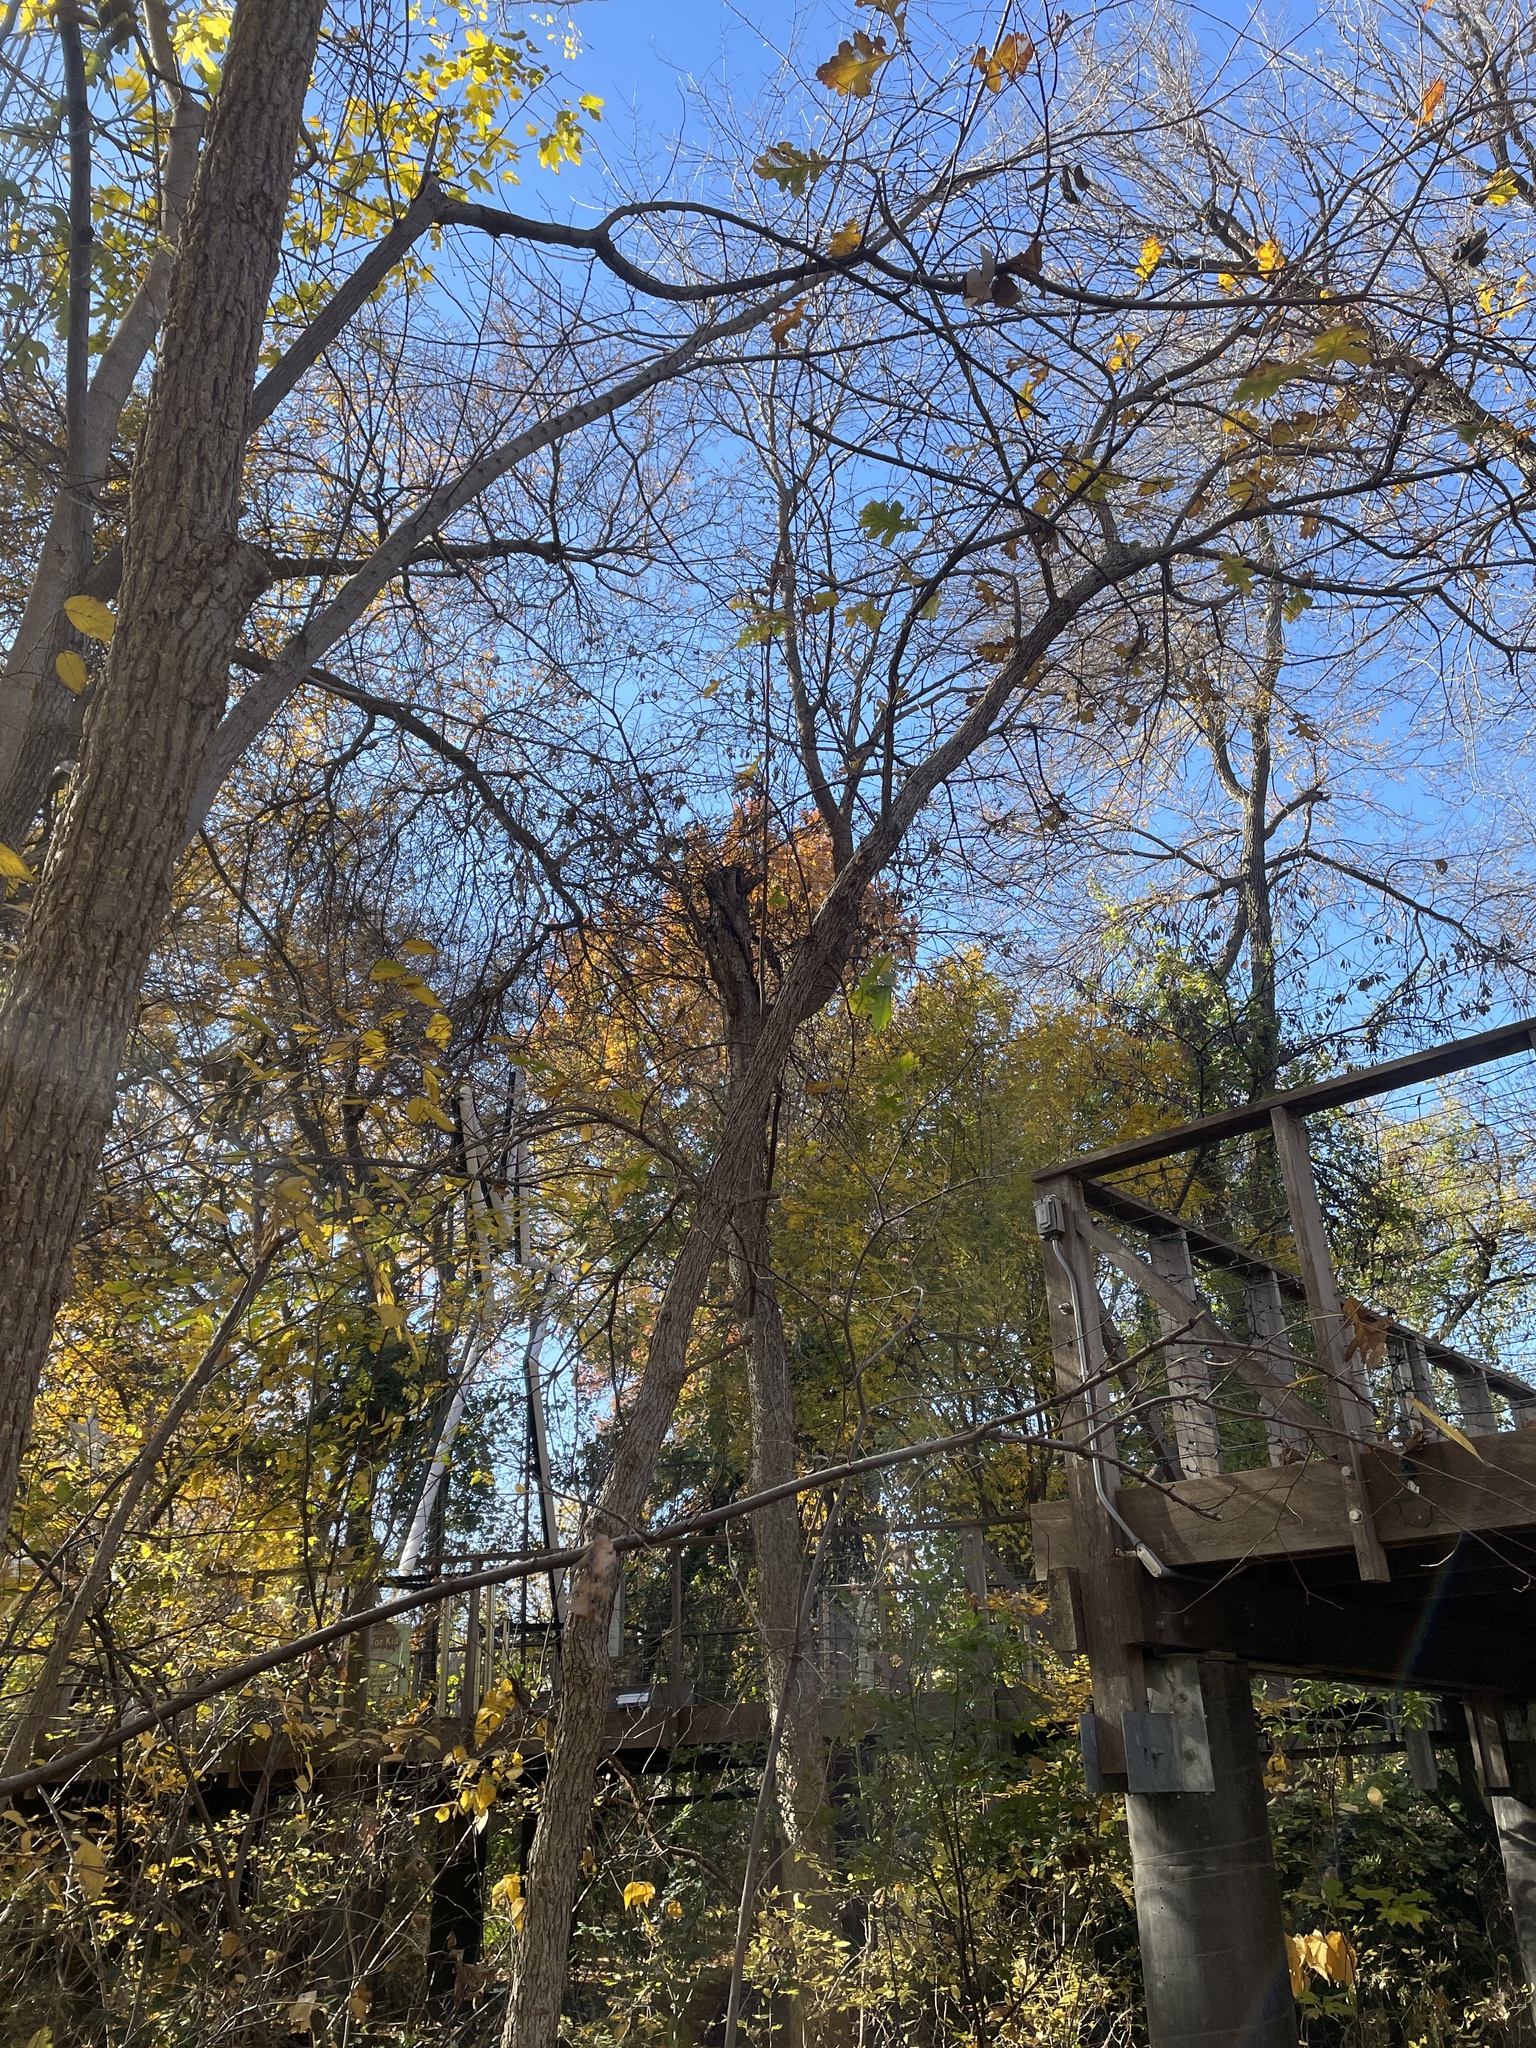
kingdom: Plantae
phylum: Tracheophyta
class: Magnoliopsida
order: Fagales
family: Fagaceae
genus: Quercus
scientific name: Quercus macrocarpa
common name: Bur oak
